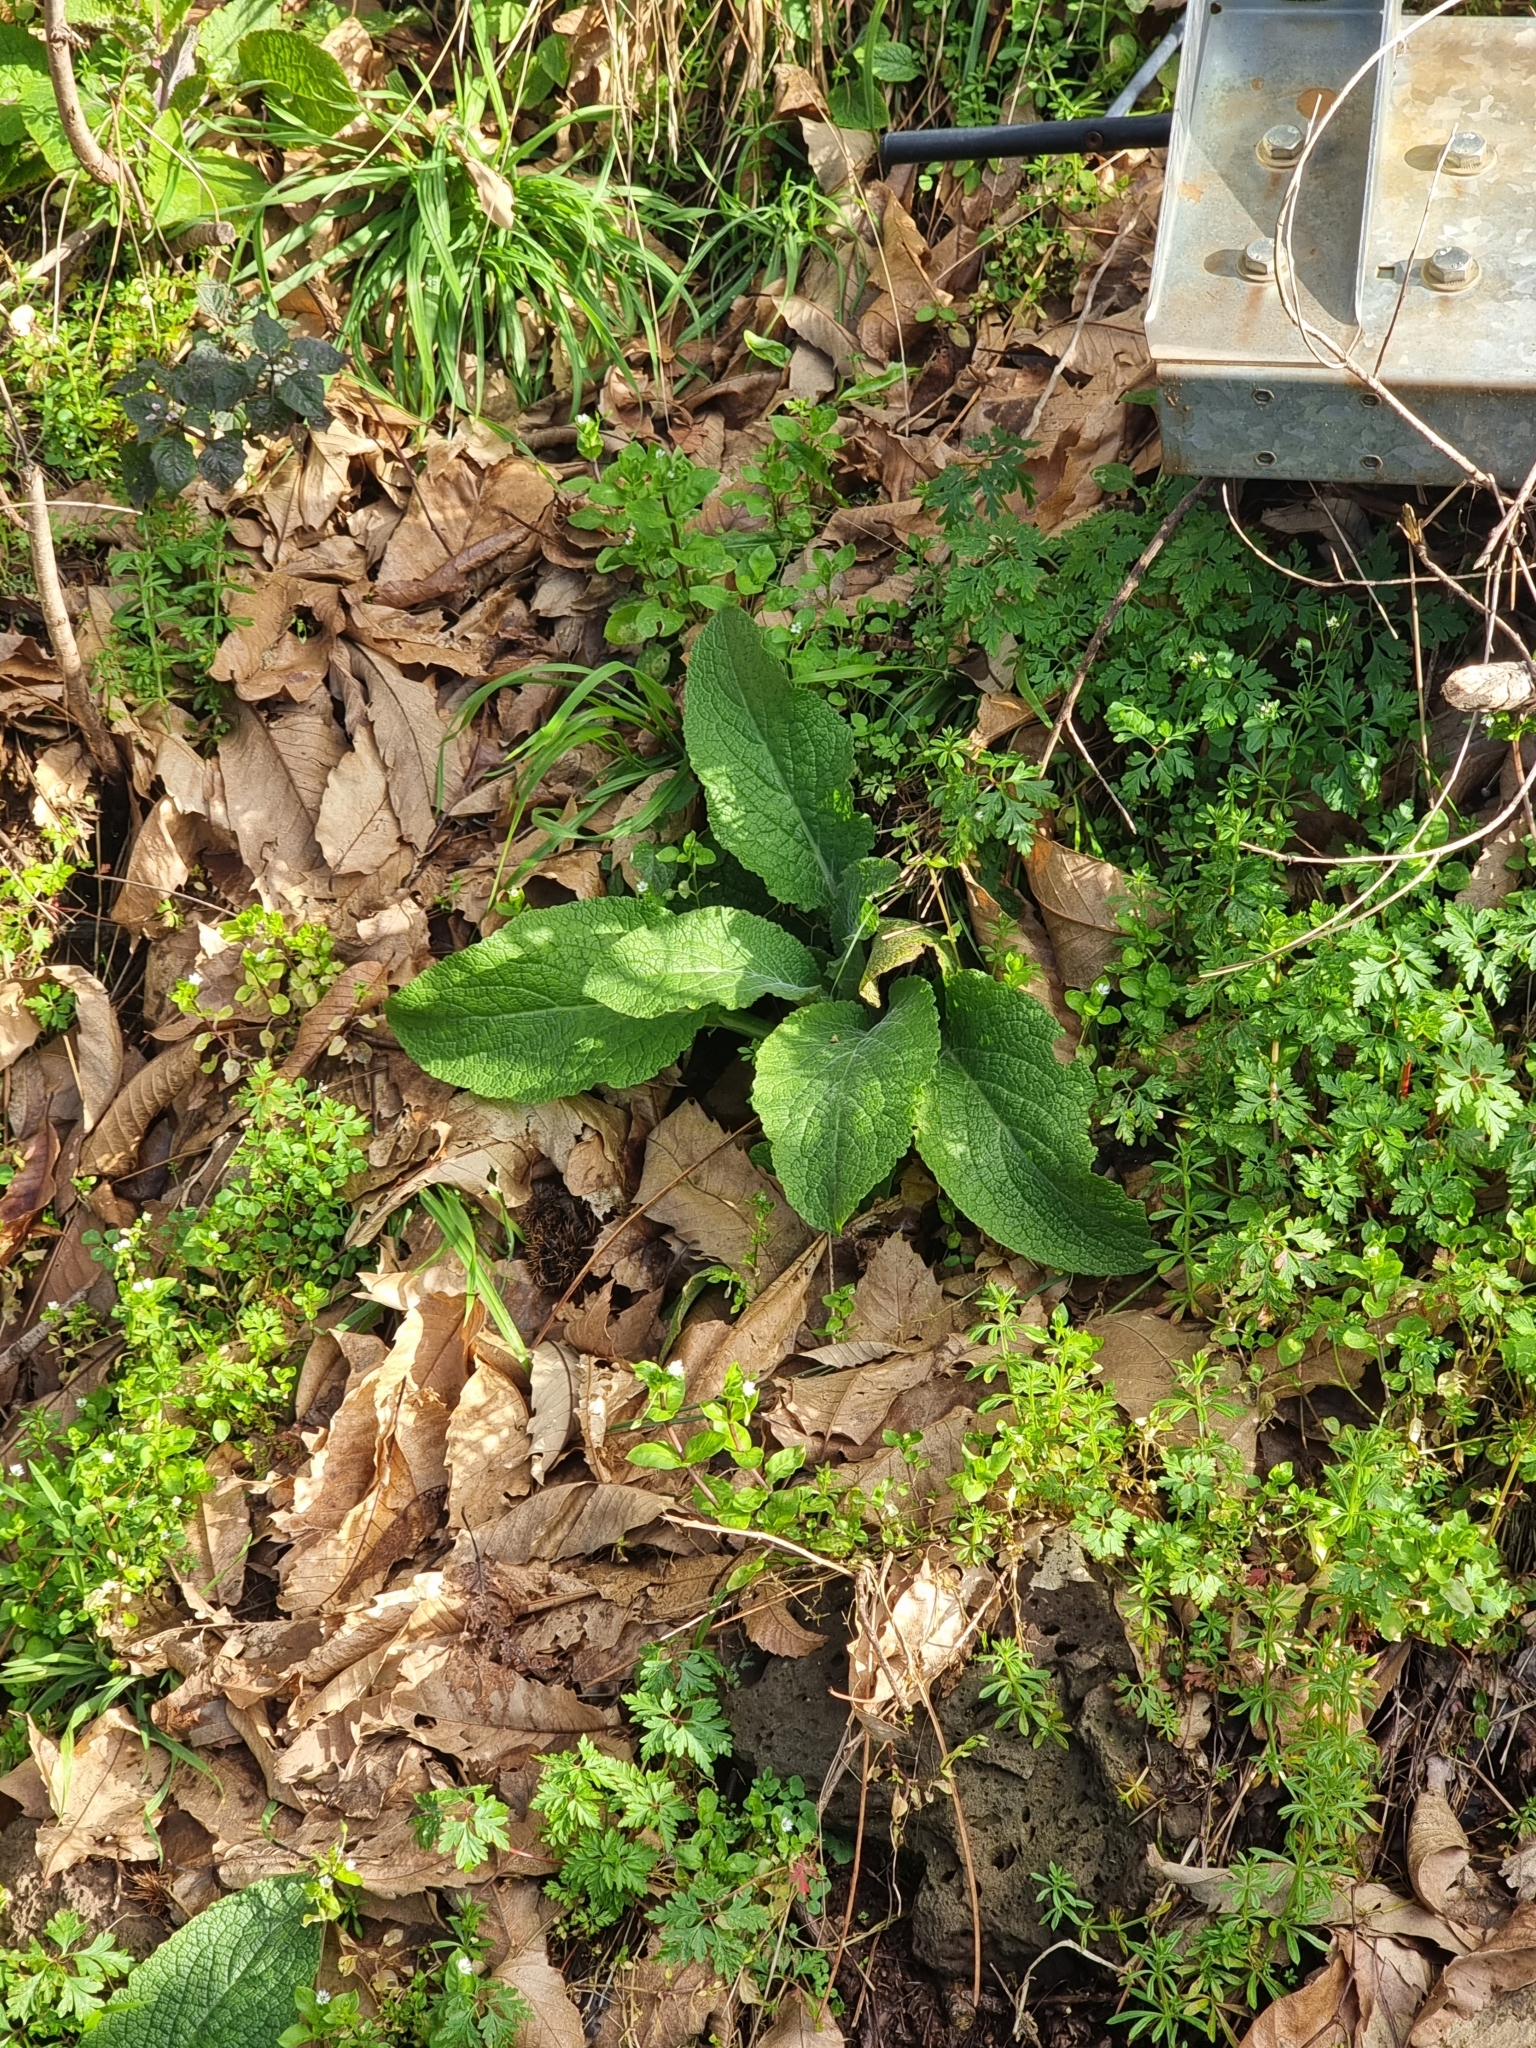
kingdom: Plantae
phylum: Tracheophyta
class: Magnoliopsida
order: Lamiales
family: Plantaginaceae
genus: Digitalis
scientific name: Digitalis purpurea
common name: Foxglove
